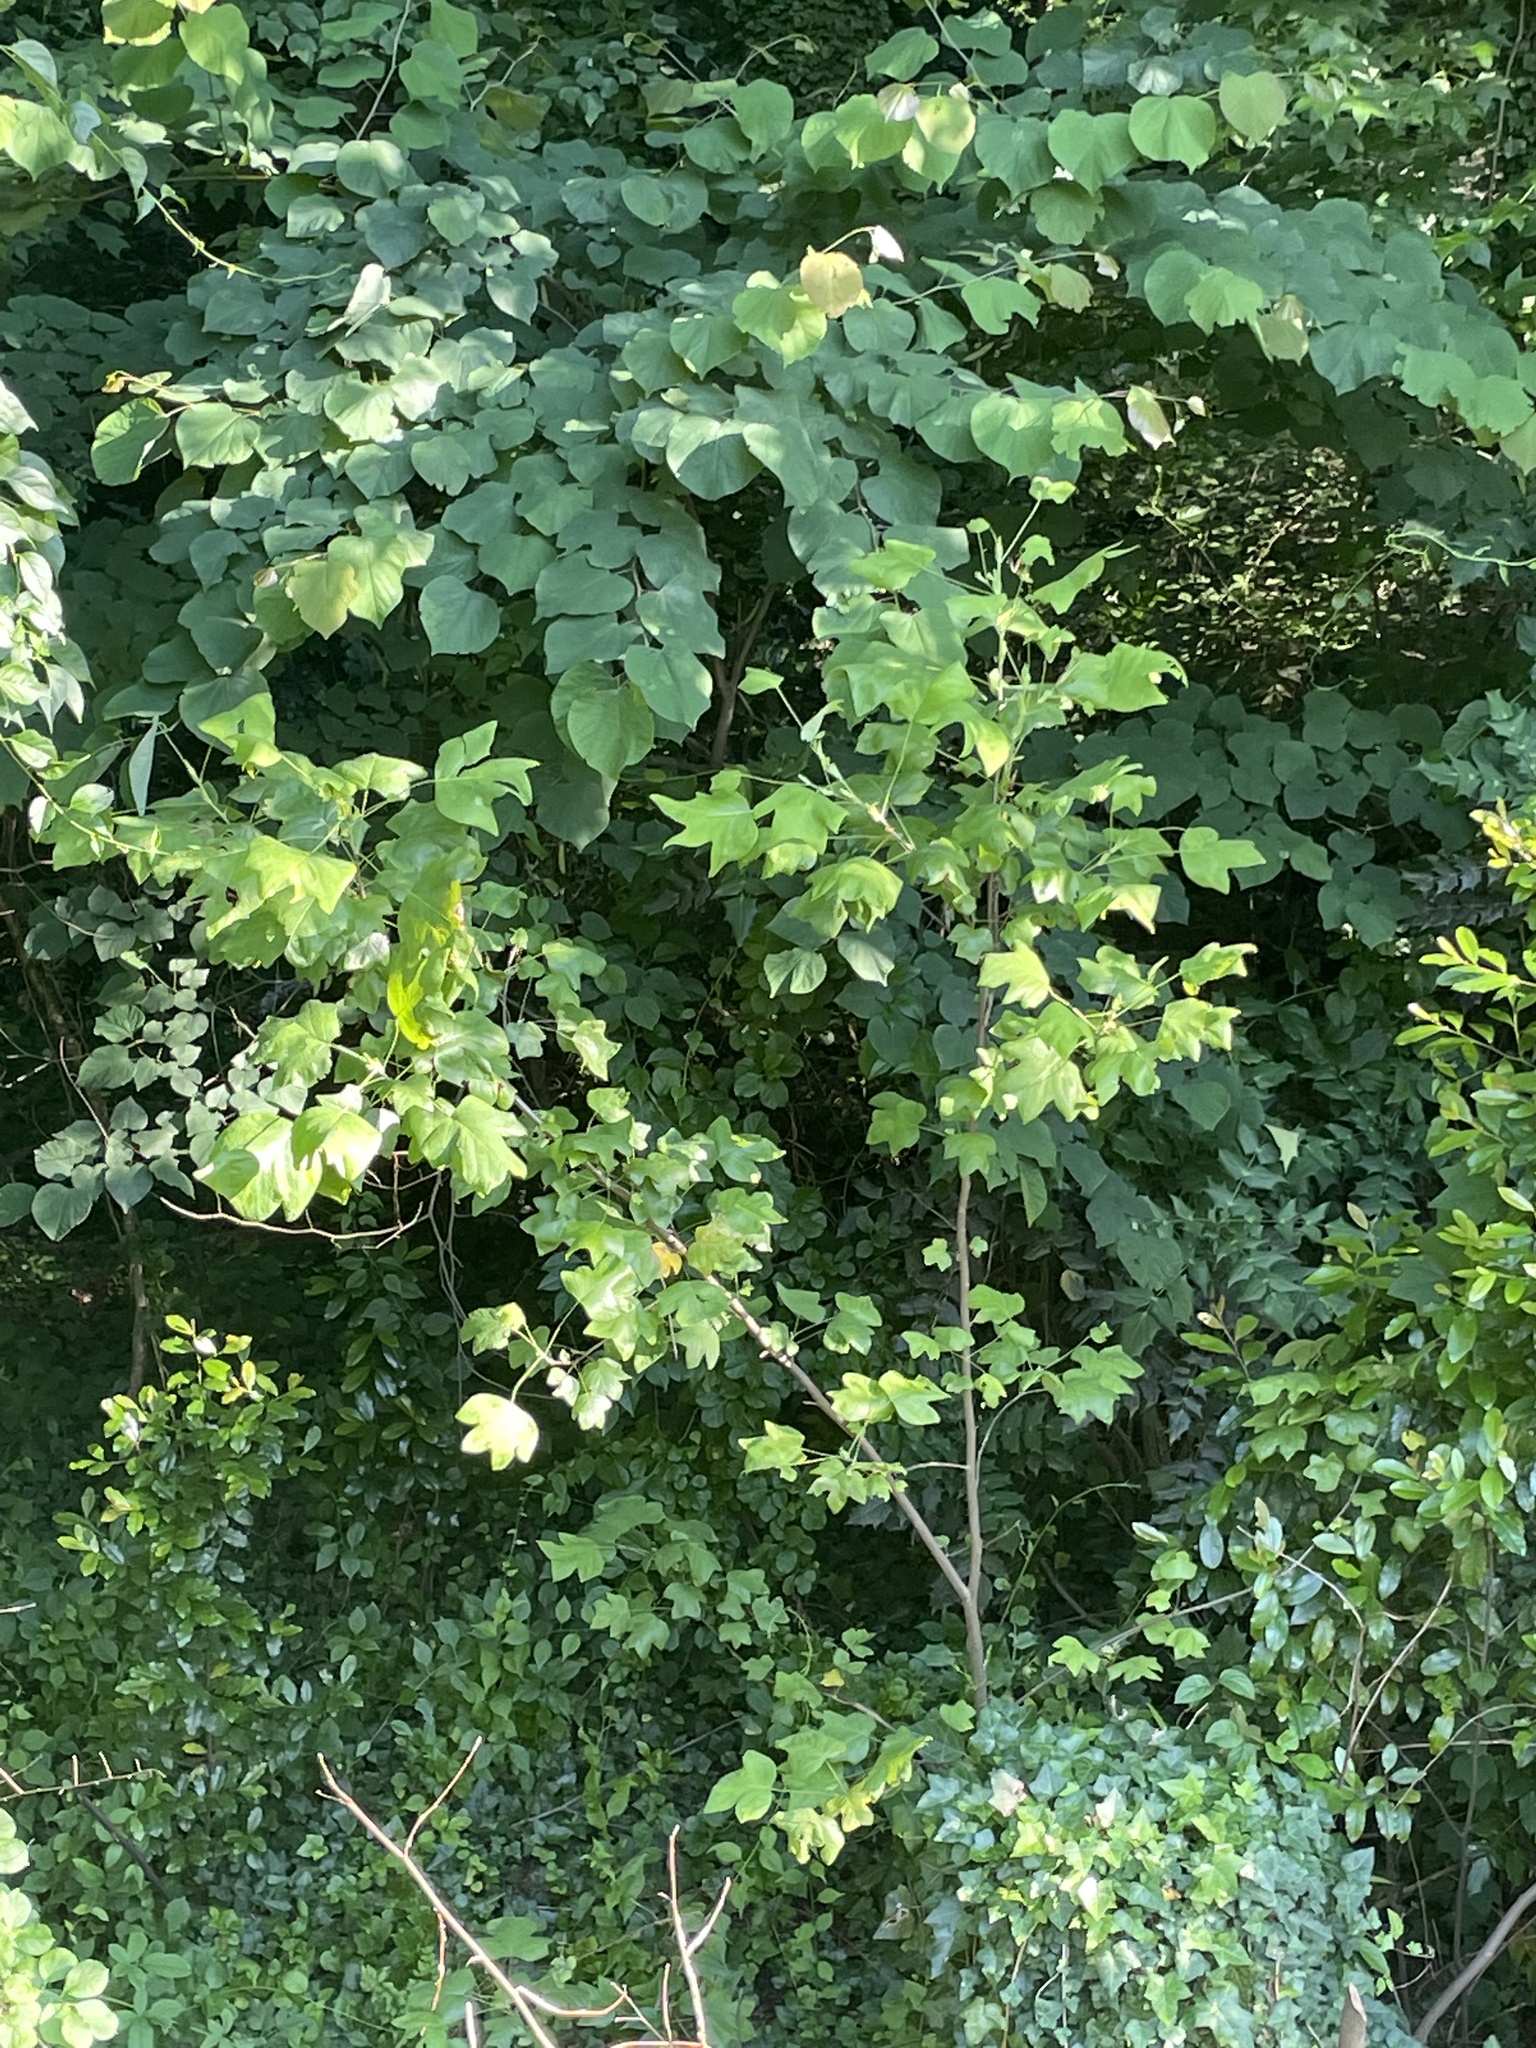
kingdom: Plantae
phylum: Tracheophyta
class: Magnoliopsida
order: Magnoliales
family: Magnoliaceae
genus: Liriodendron
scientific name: Liriodendron tulipifera
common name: Tulip tree
